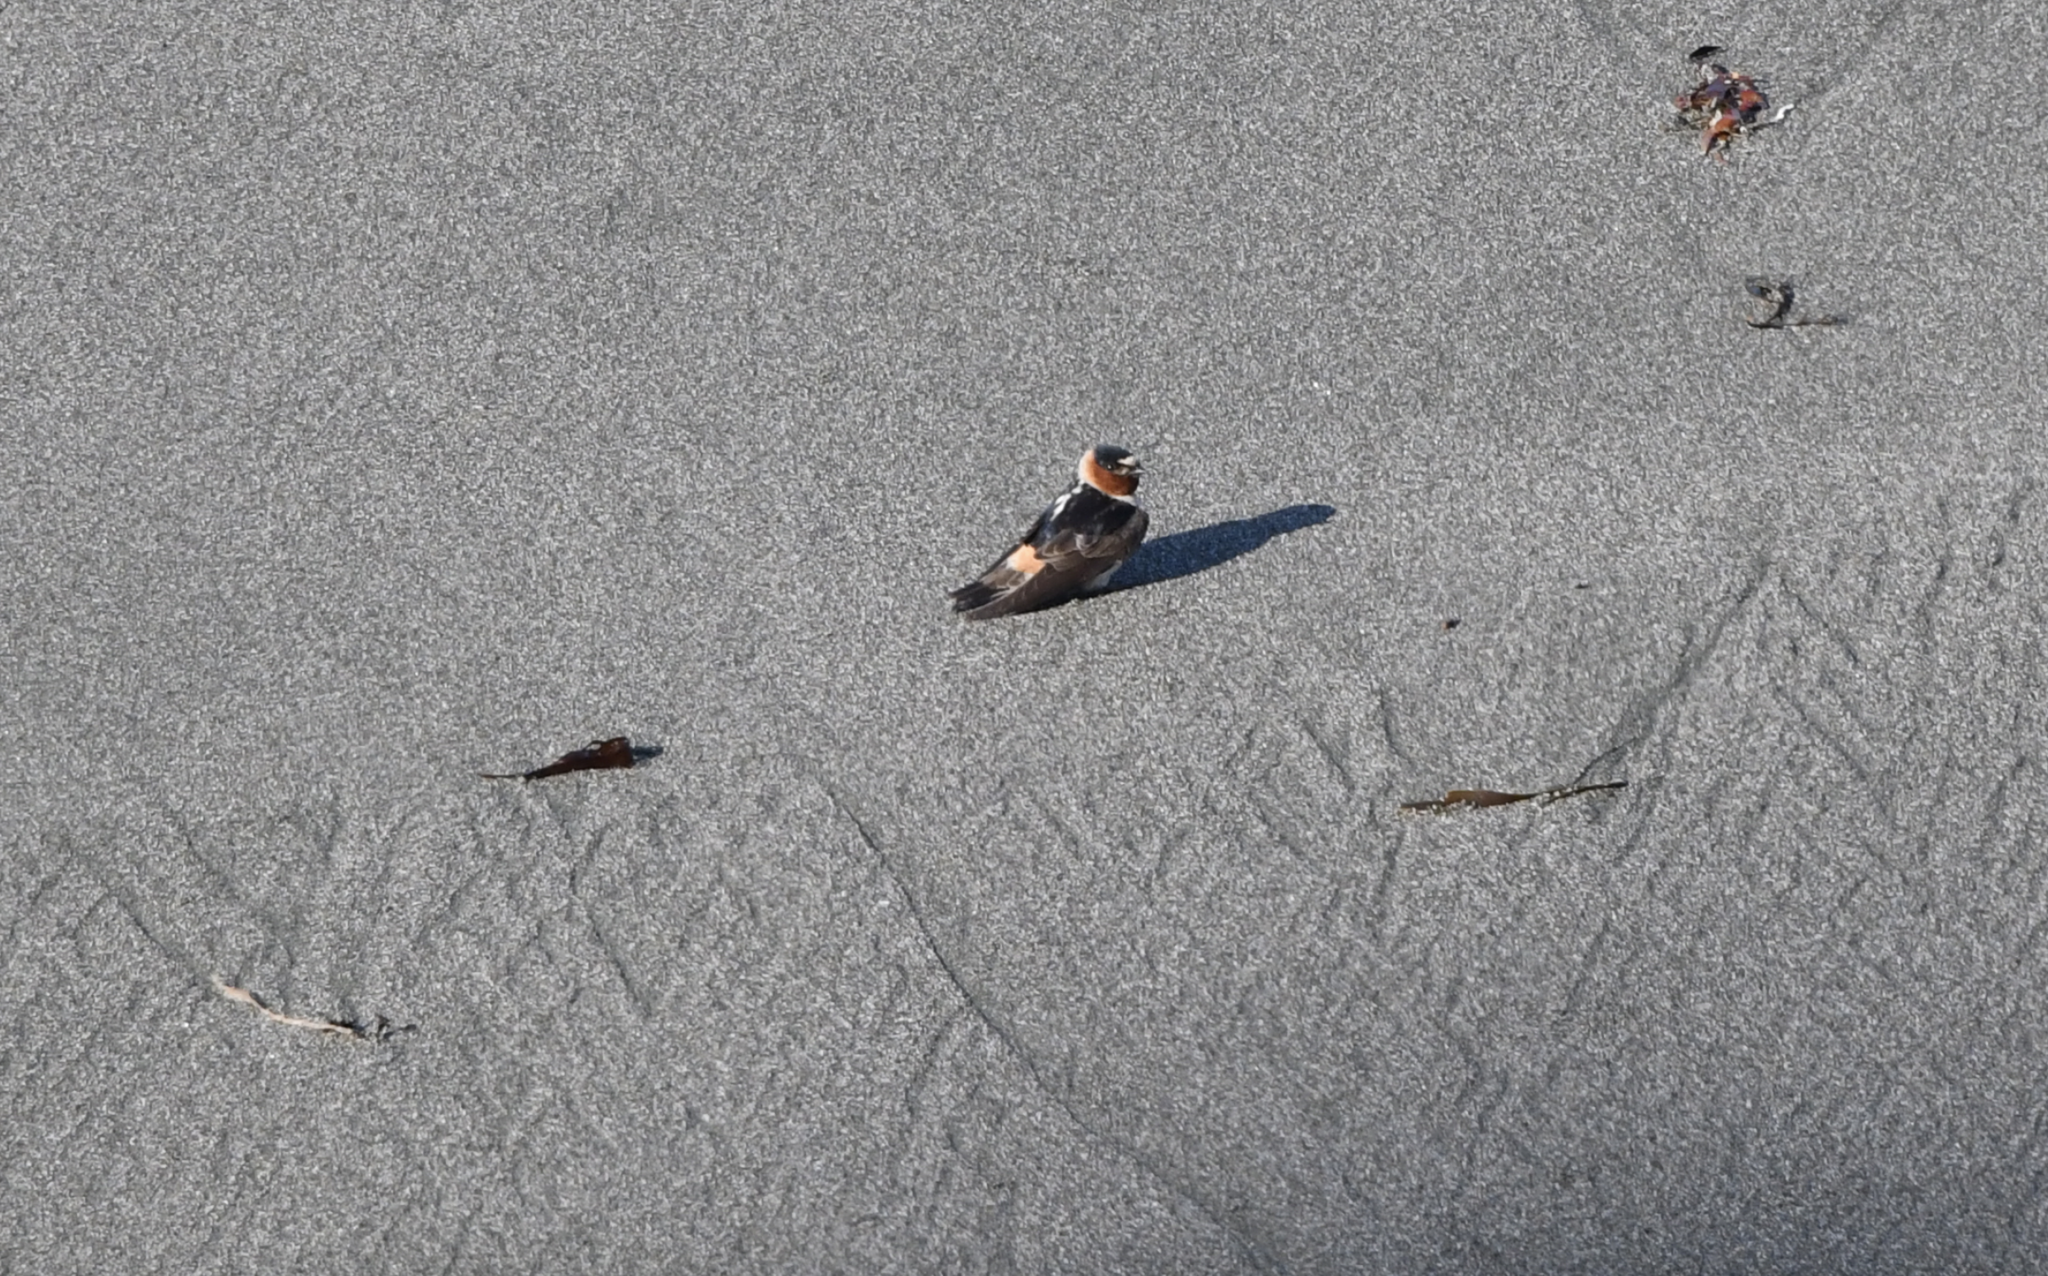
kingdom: Animalia
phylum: Chordata
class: Aves
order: Passeriformes
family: Hirundinidae
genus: Petrochelidon
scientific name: Petrochelidon pyrrhonota
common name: American cliff swallow
